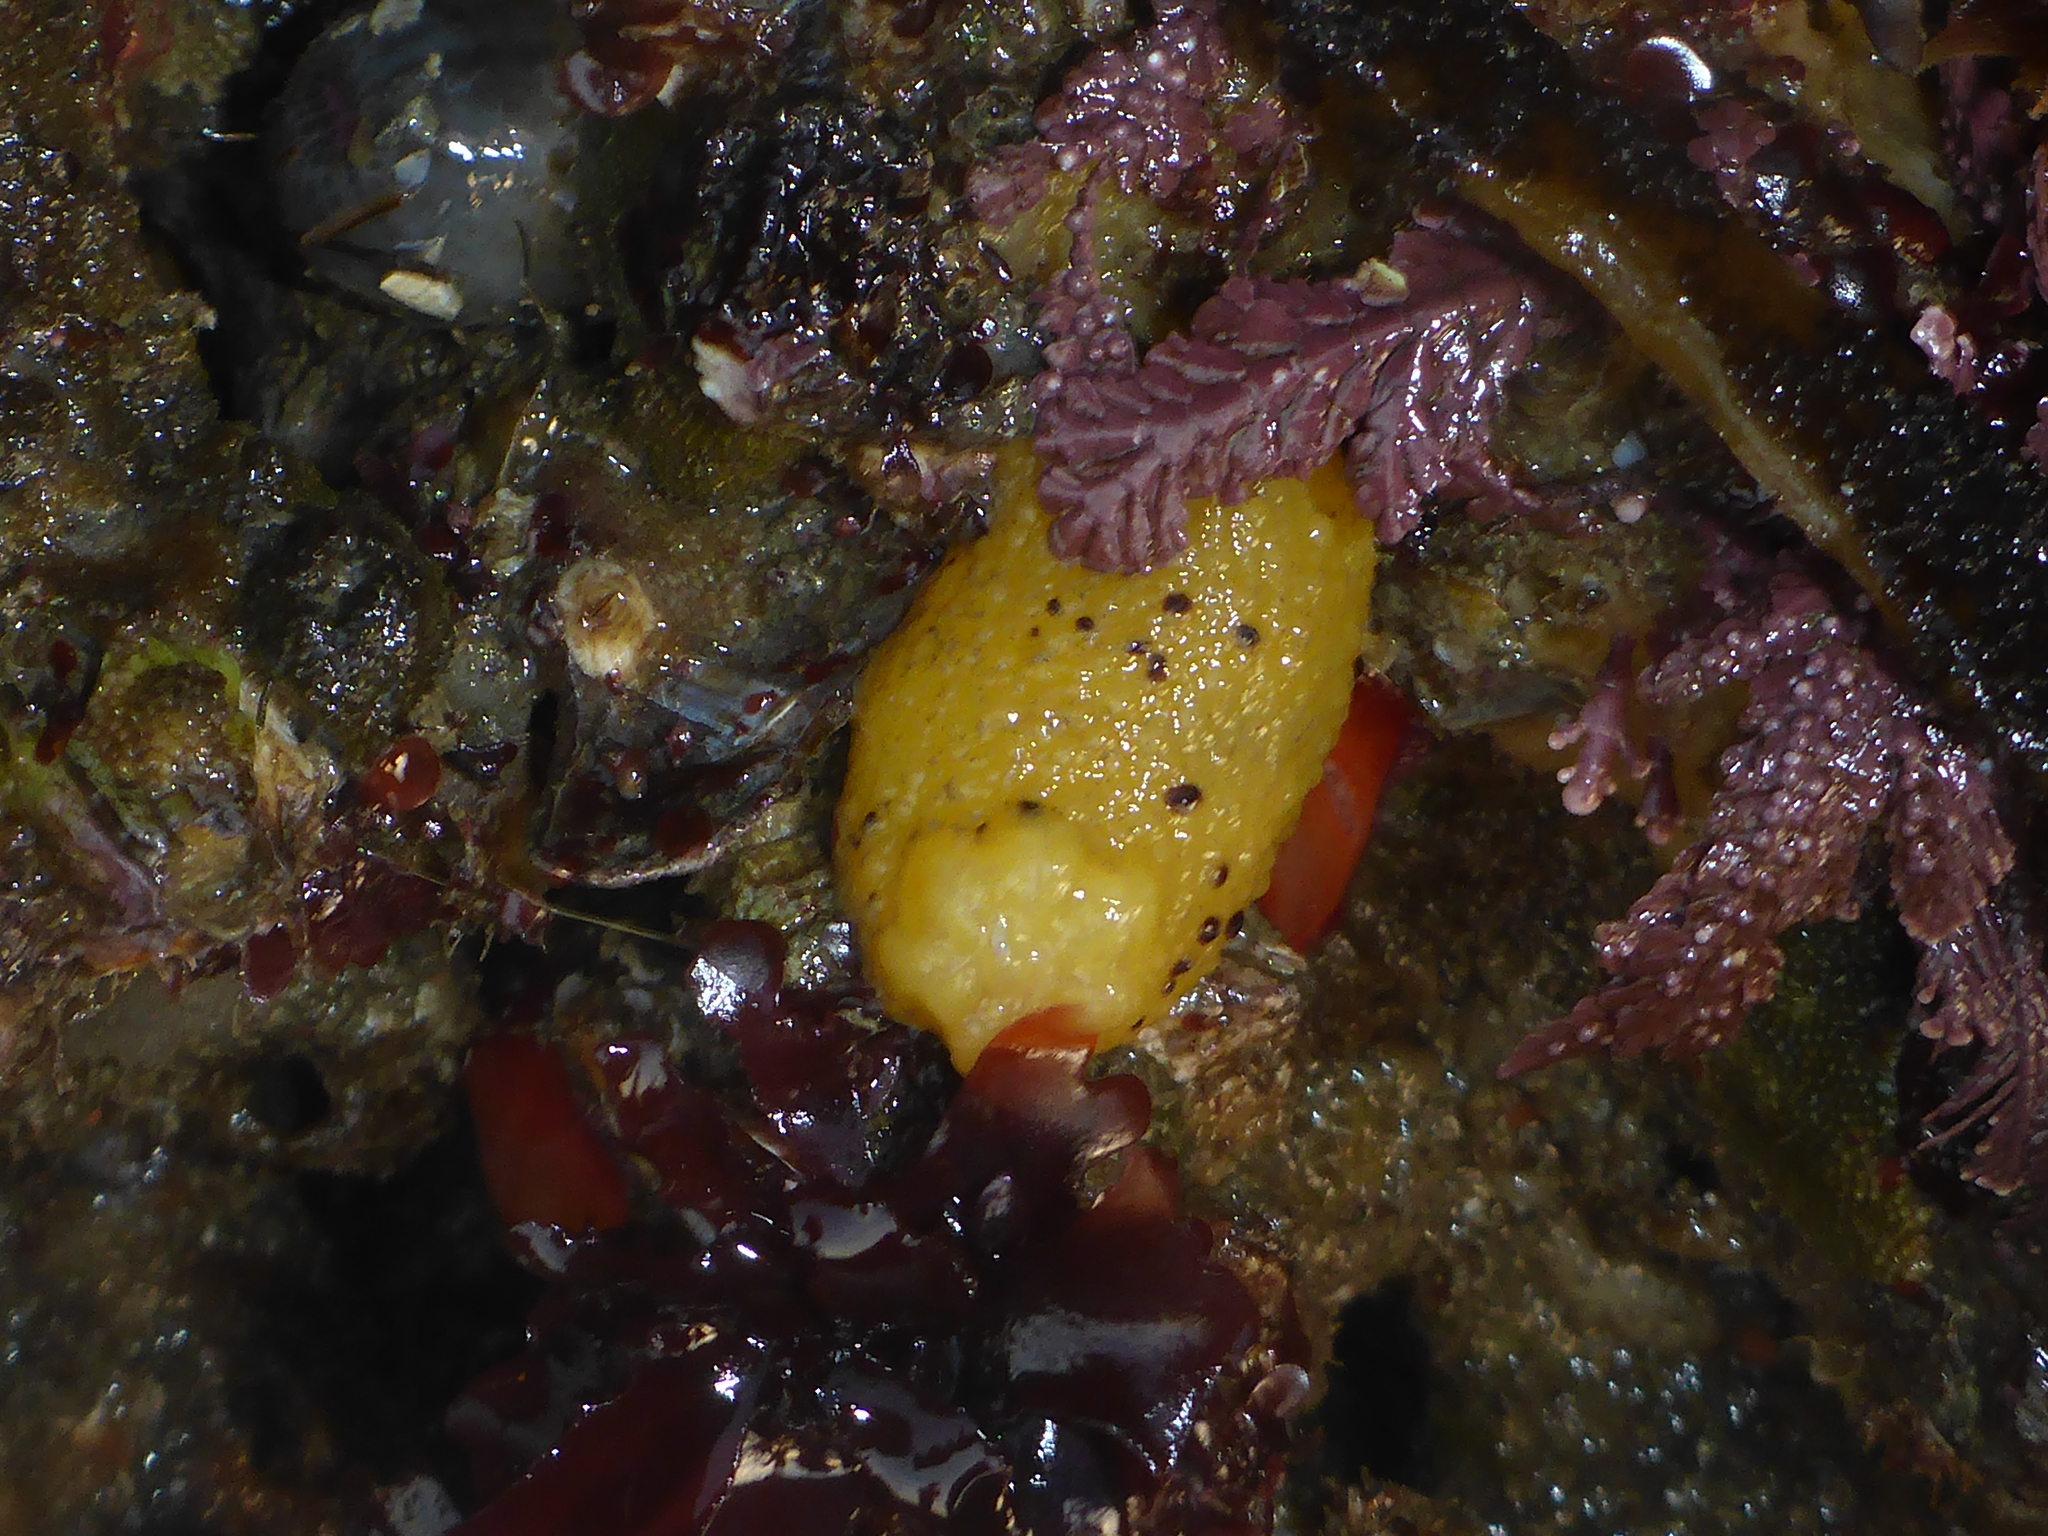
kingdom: Animalia
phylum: Mollusca
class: Gastropoda
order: Nudibranchia
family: Dorididae
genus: Doris
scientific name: Doris montereyensis
